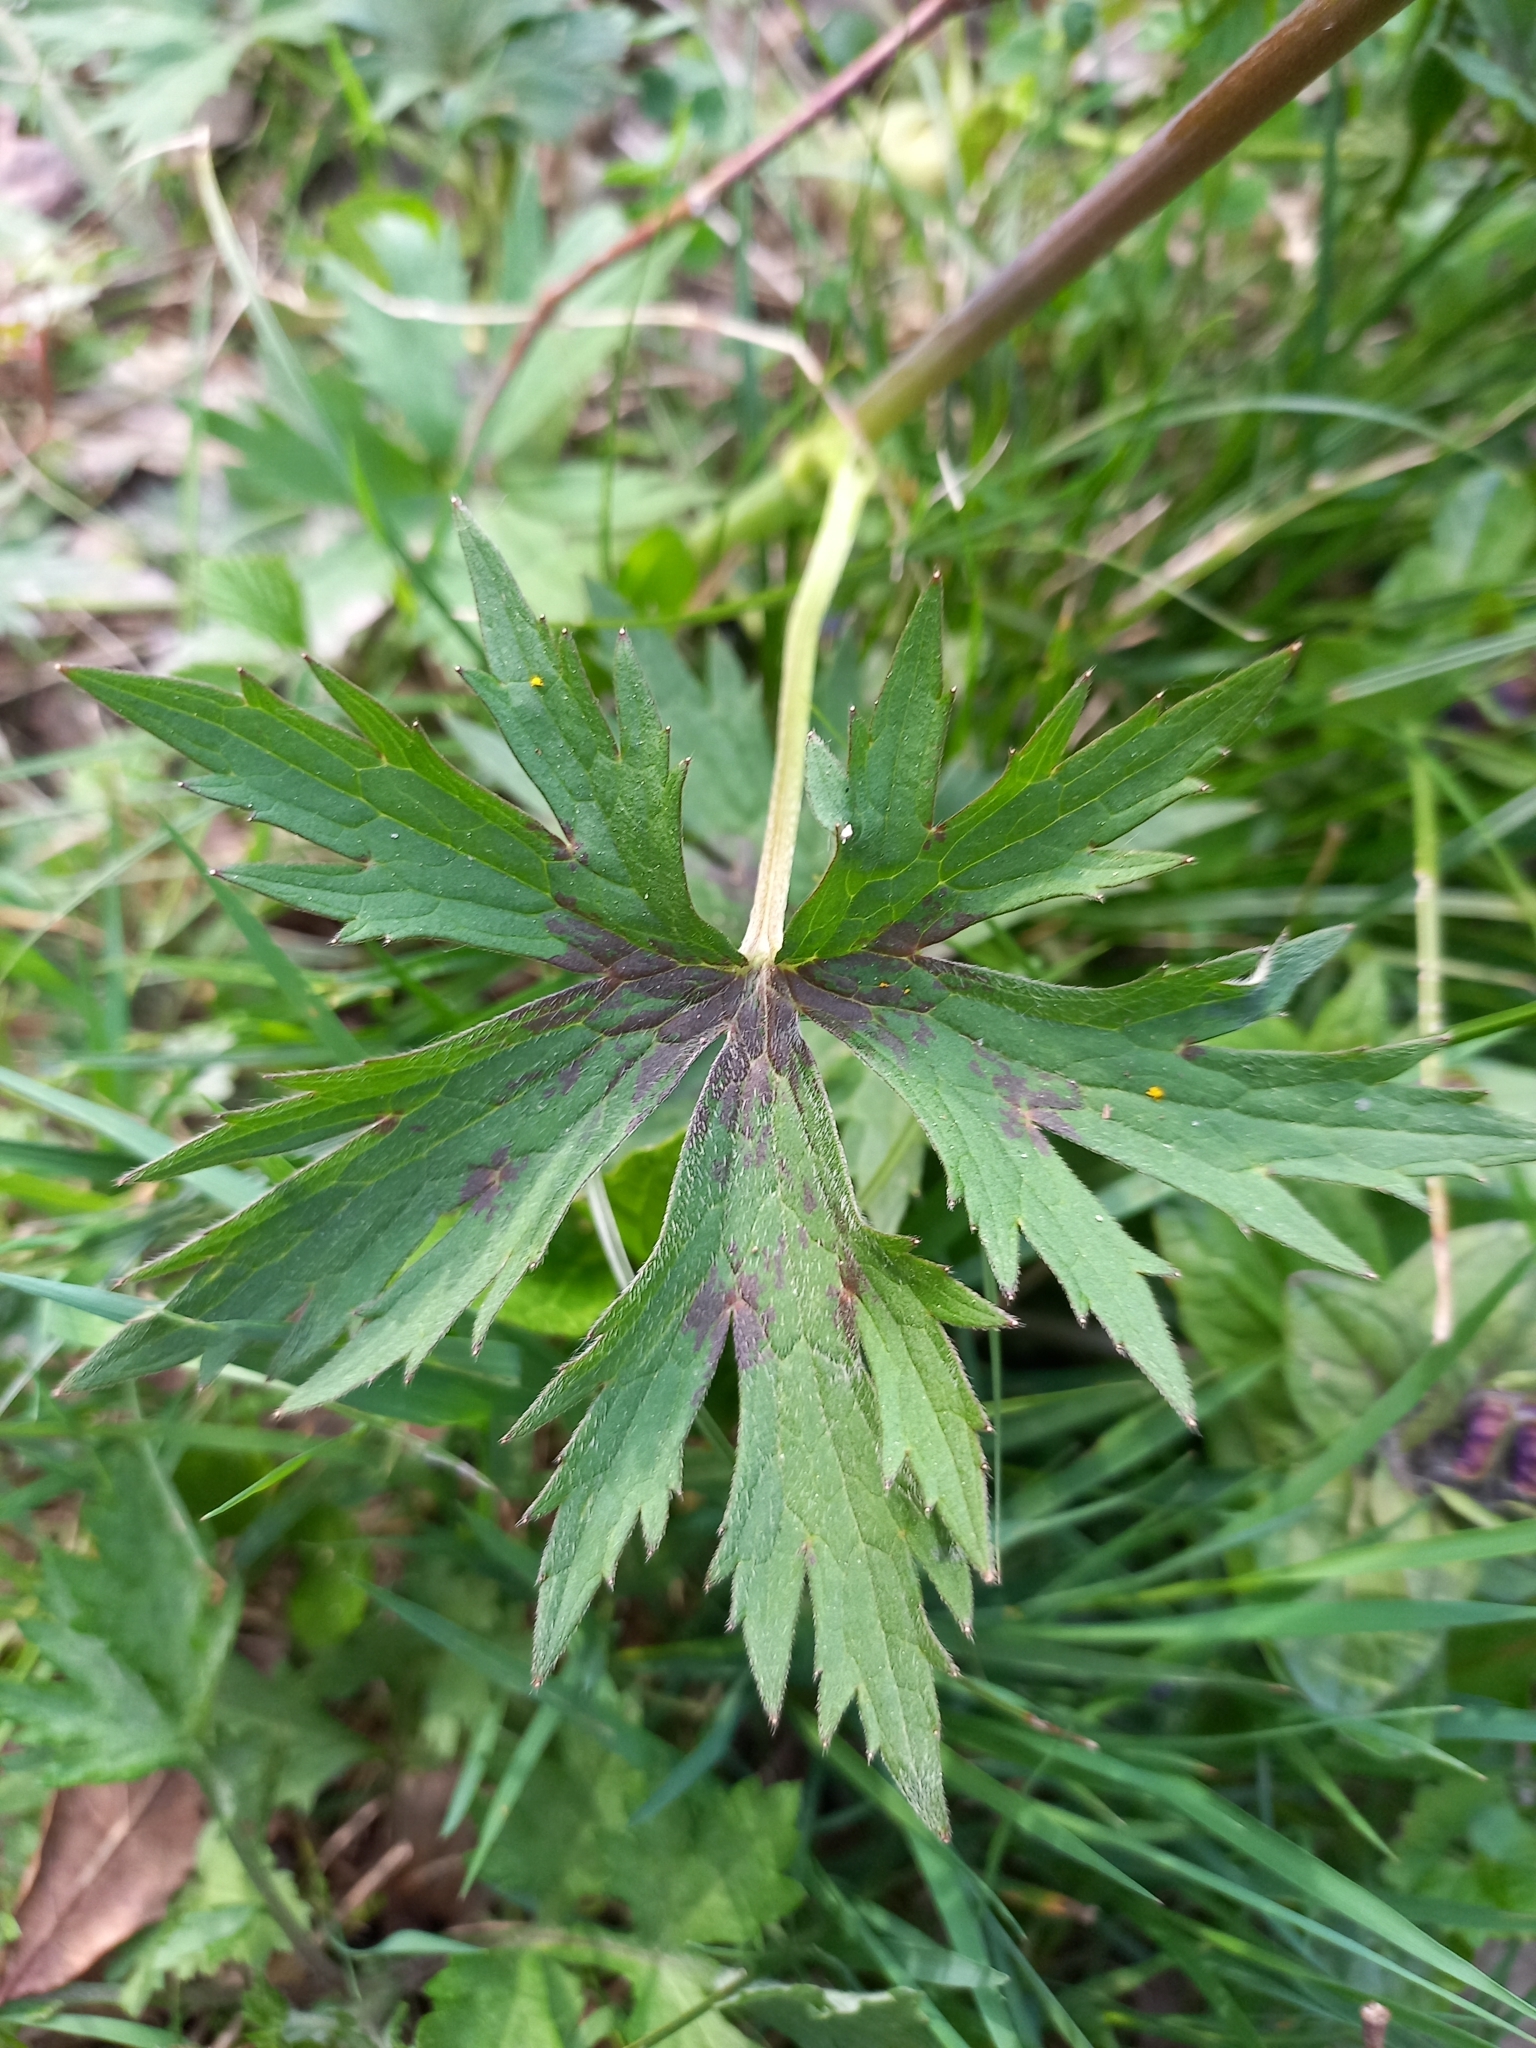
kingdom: Plantae
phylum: Tracheophyta
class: Magnoliopsida
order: Ranunculales
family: Ranunculaceae
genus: Ranunculus
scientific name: Ranunculus acris
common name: Meadow buttercup
